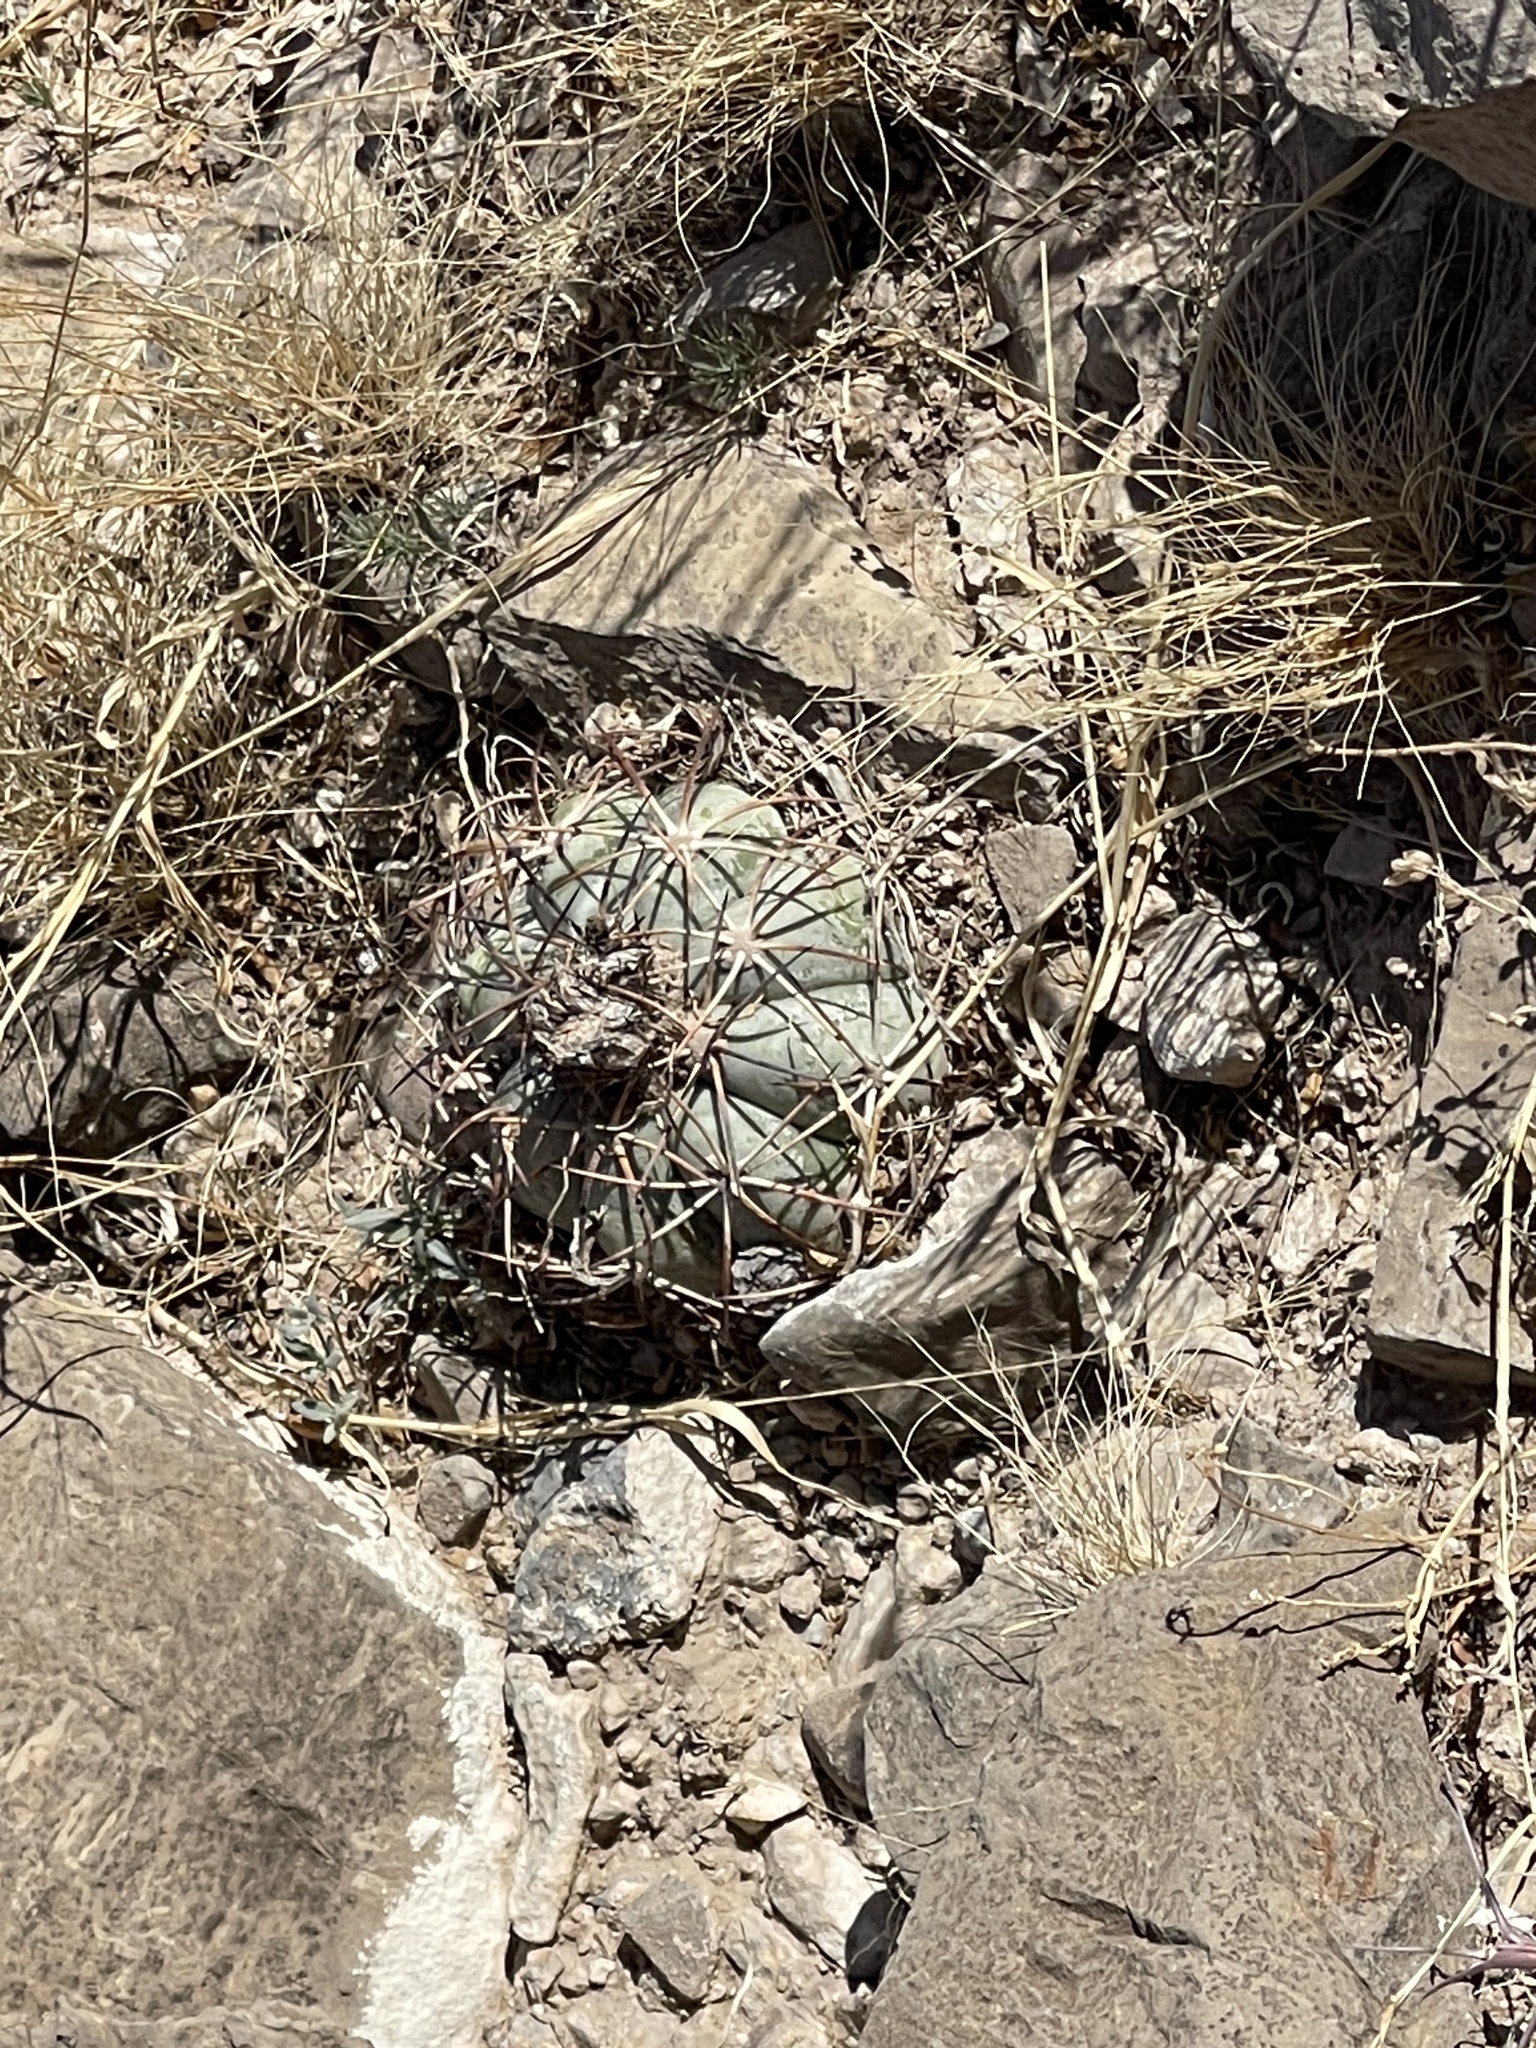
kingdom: Plantae
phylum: Tracheophyta
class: Magnoliopsida
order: Caryophyllales
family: Cactaceae
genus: Echinocactus
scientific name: Echinocactus horizonthalonius
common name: Devilshead
